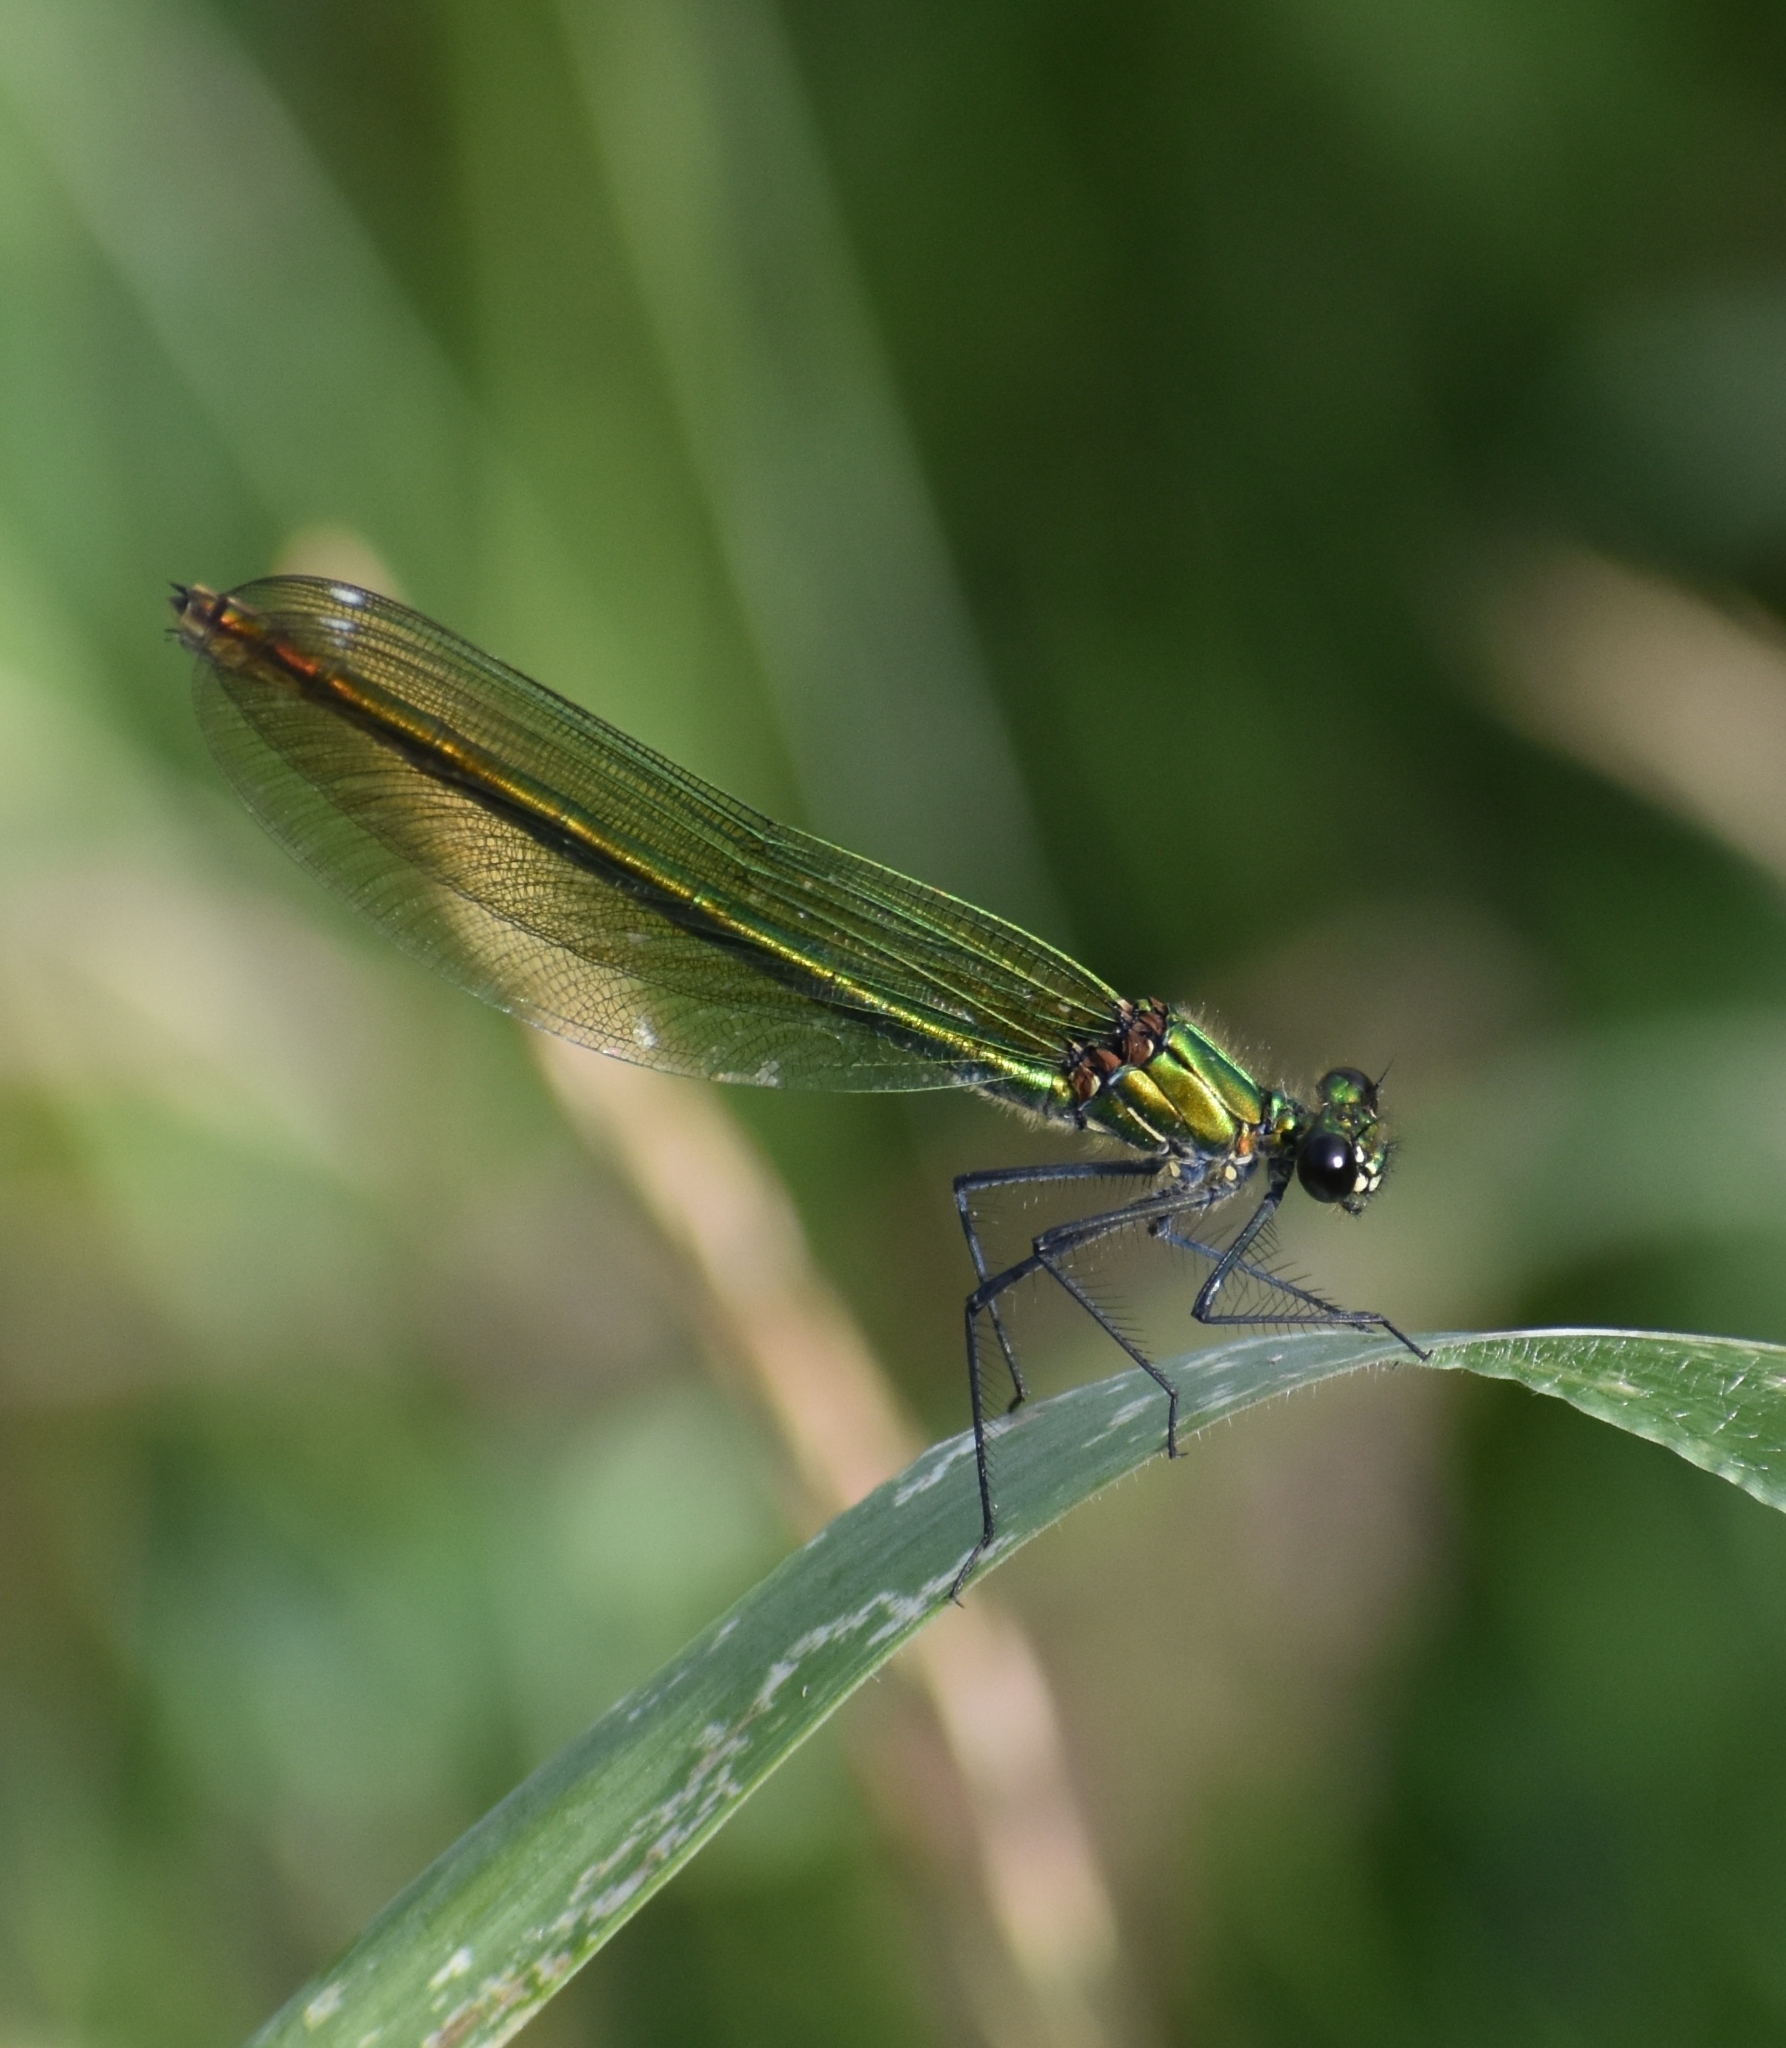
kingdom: Animalia
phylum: Arthropoda
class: Insecta
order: Odonata
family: Calopterygidae
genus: Calopteryx
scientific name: Calopteryx splendens
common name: Banded demoiselle
